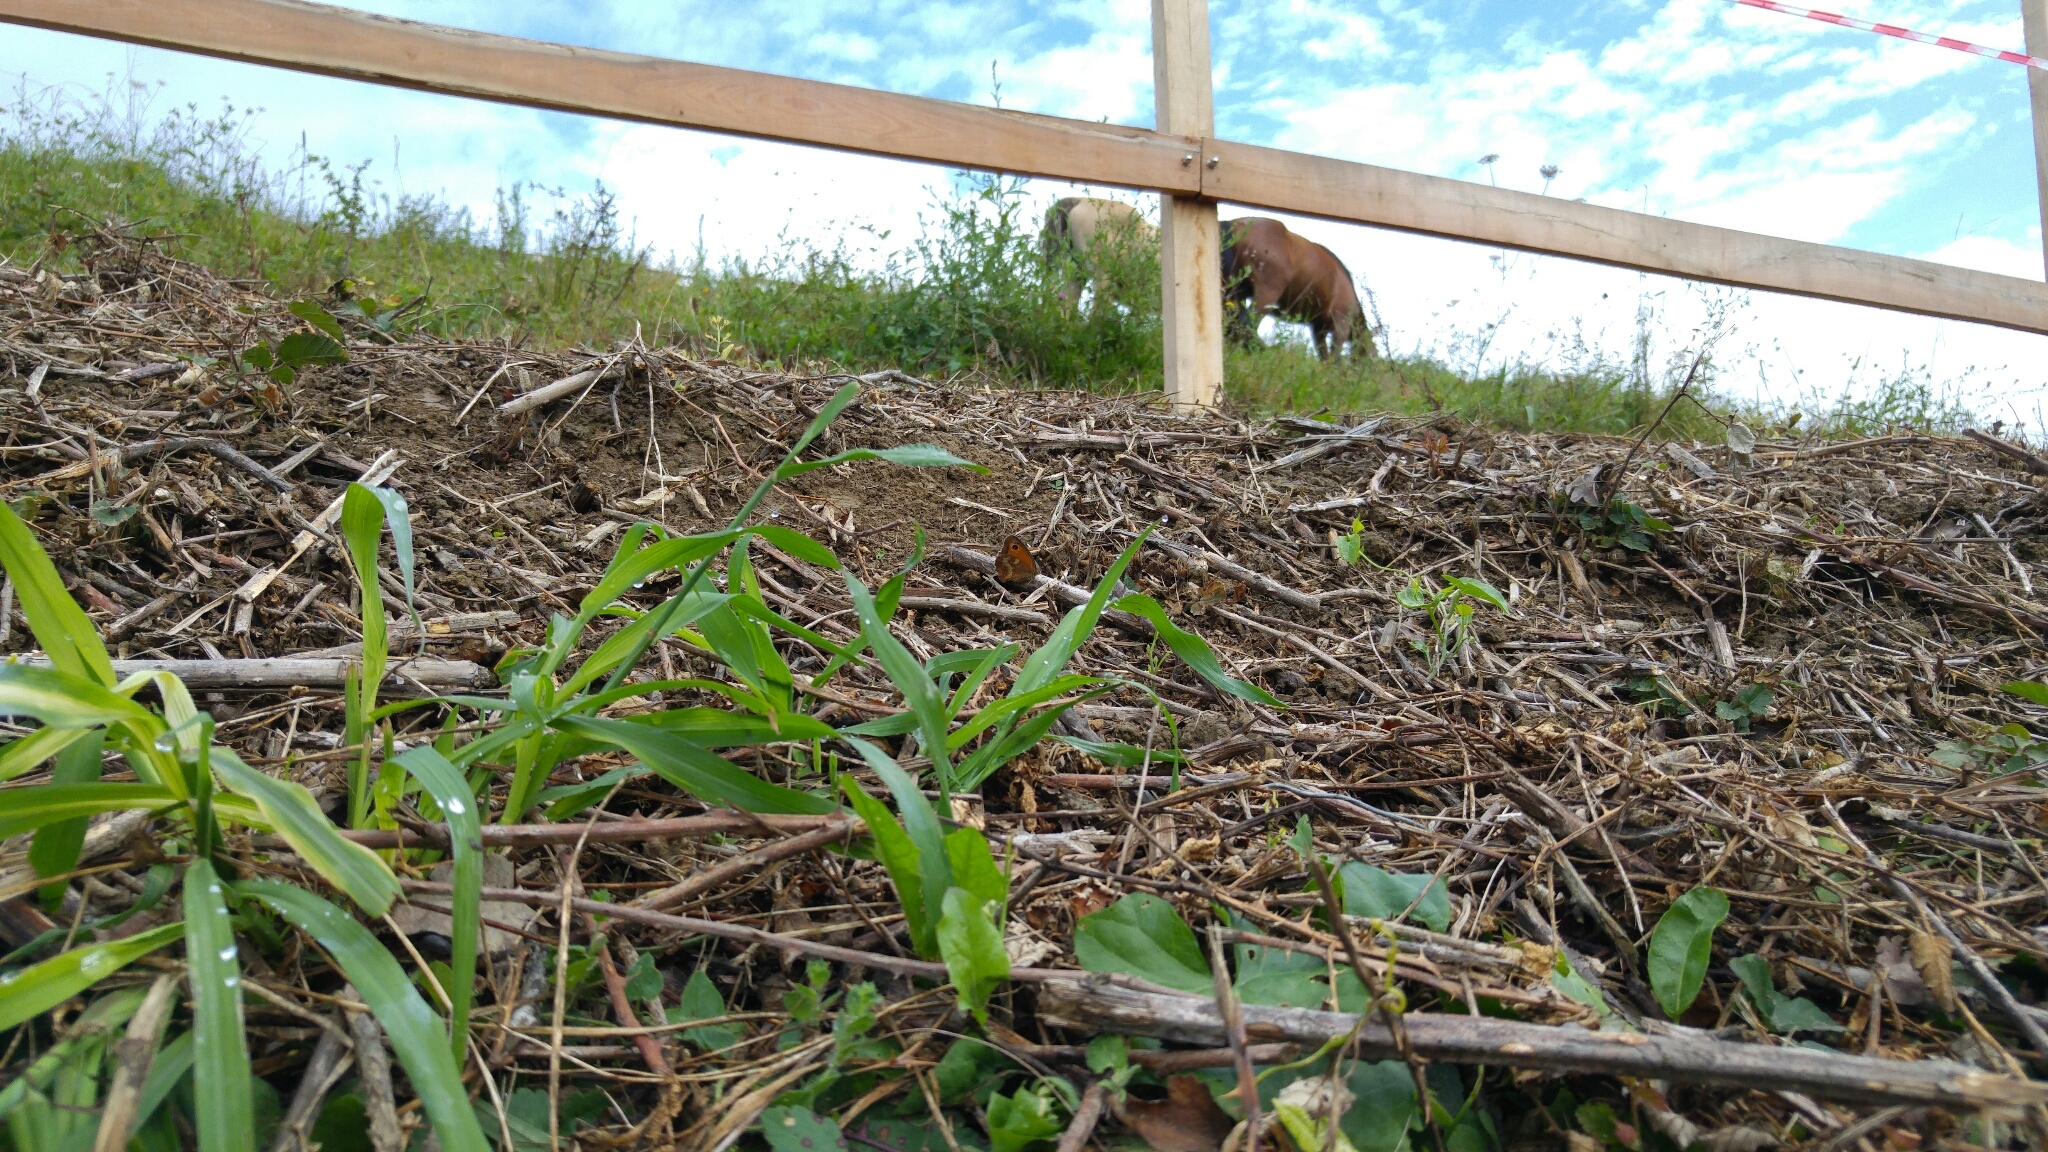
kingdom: Animalia
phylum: Arthropoda
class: Insecta
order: Lepidoptera
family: Nymphalidae
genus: Pyronia
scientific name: Pyronia tithonus
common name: Gatekeeper
